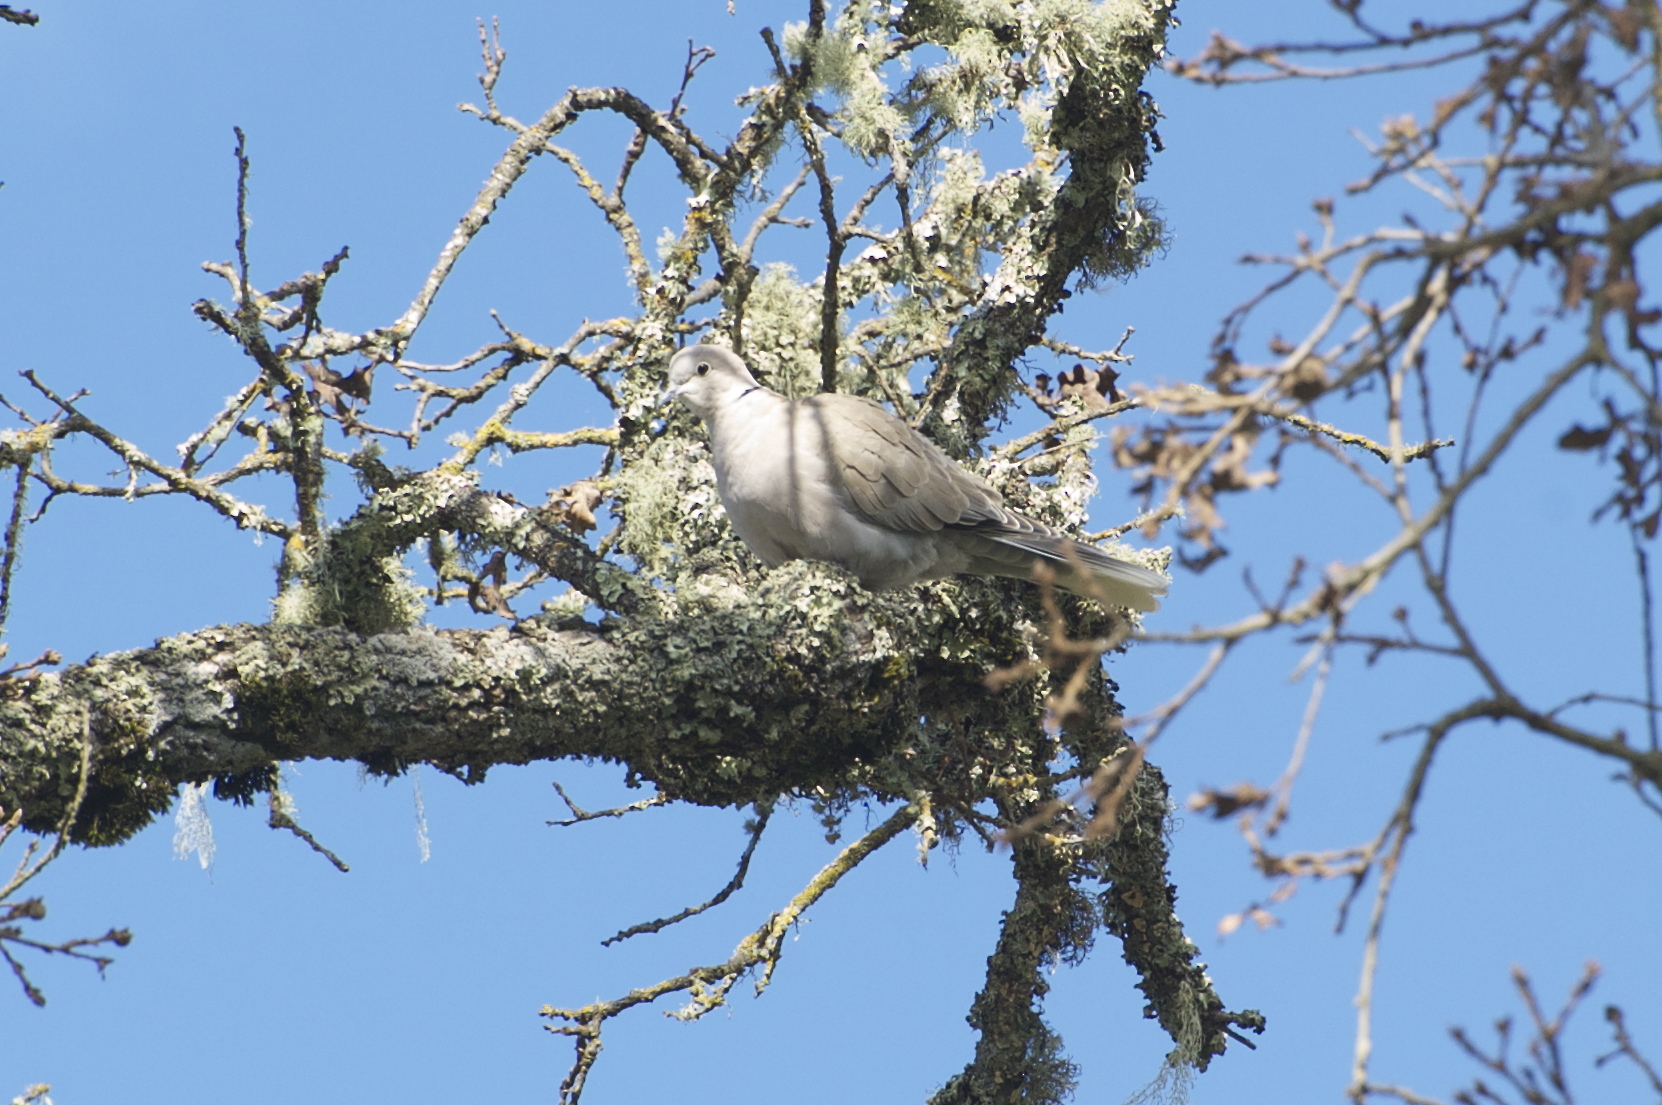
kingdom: Animalia
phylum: Chordata
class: Aves
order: Columbiformes
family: Columbidae
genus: Streptopelia
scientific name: Streptopelia decaocto
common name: Eurasian collared dove
